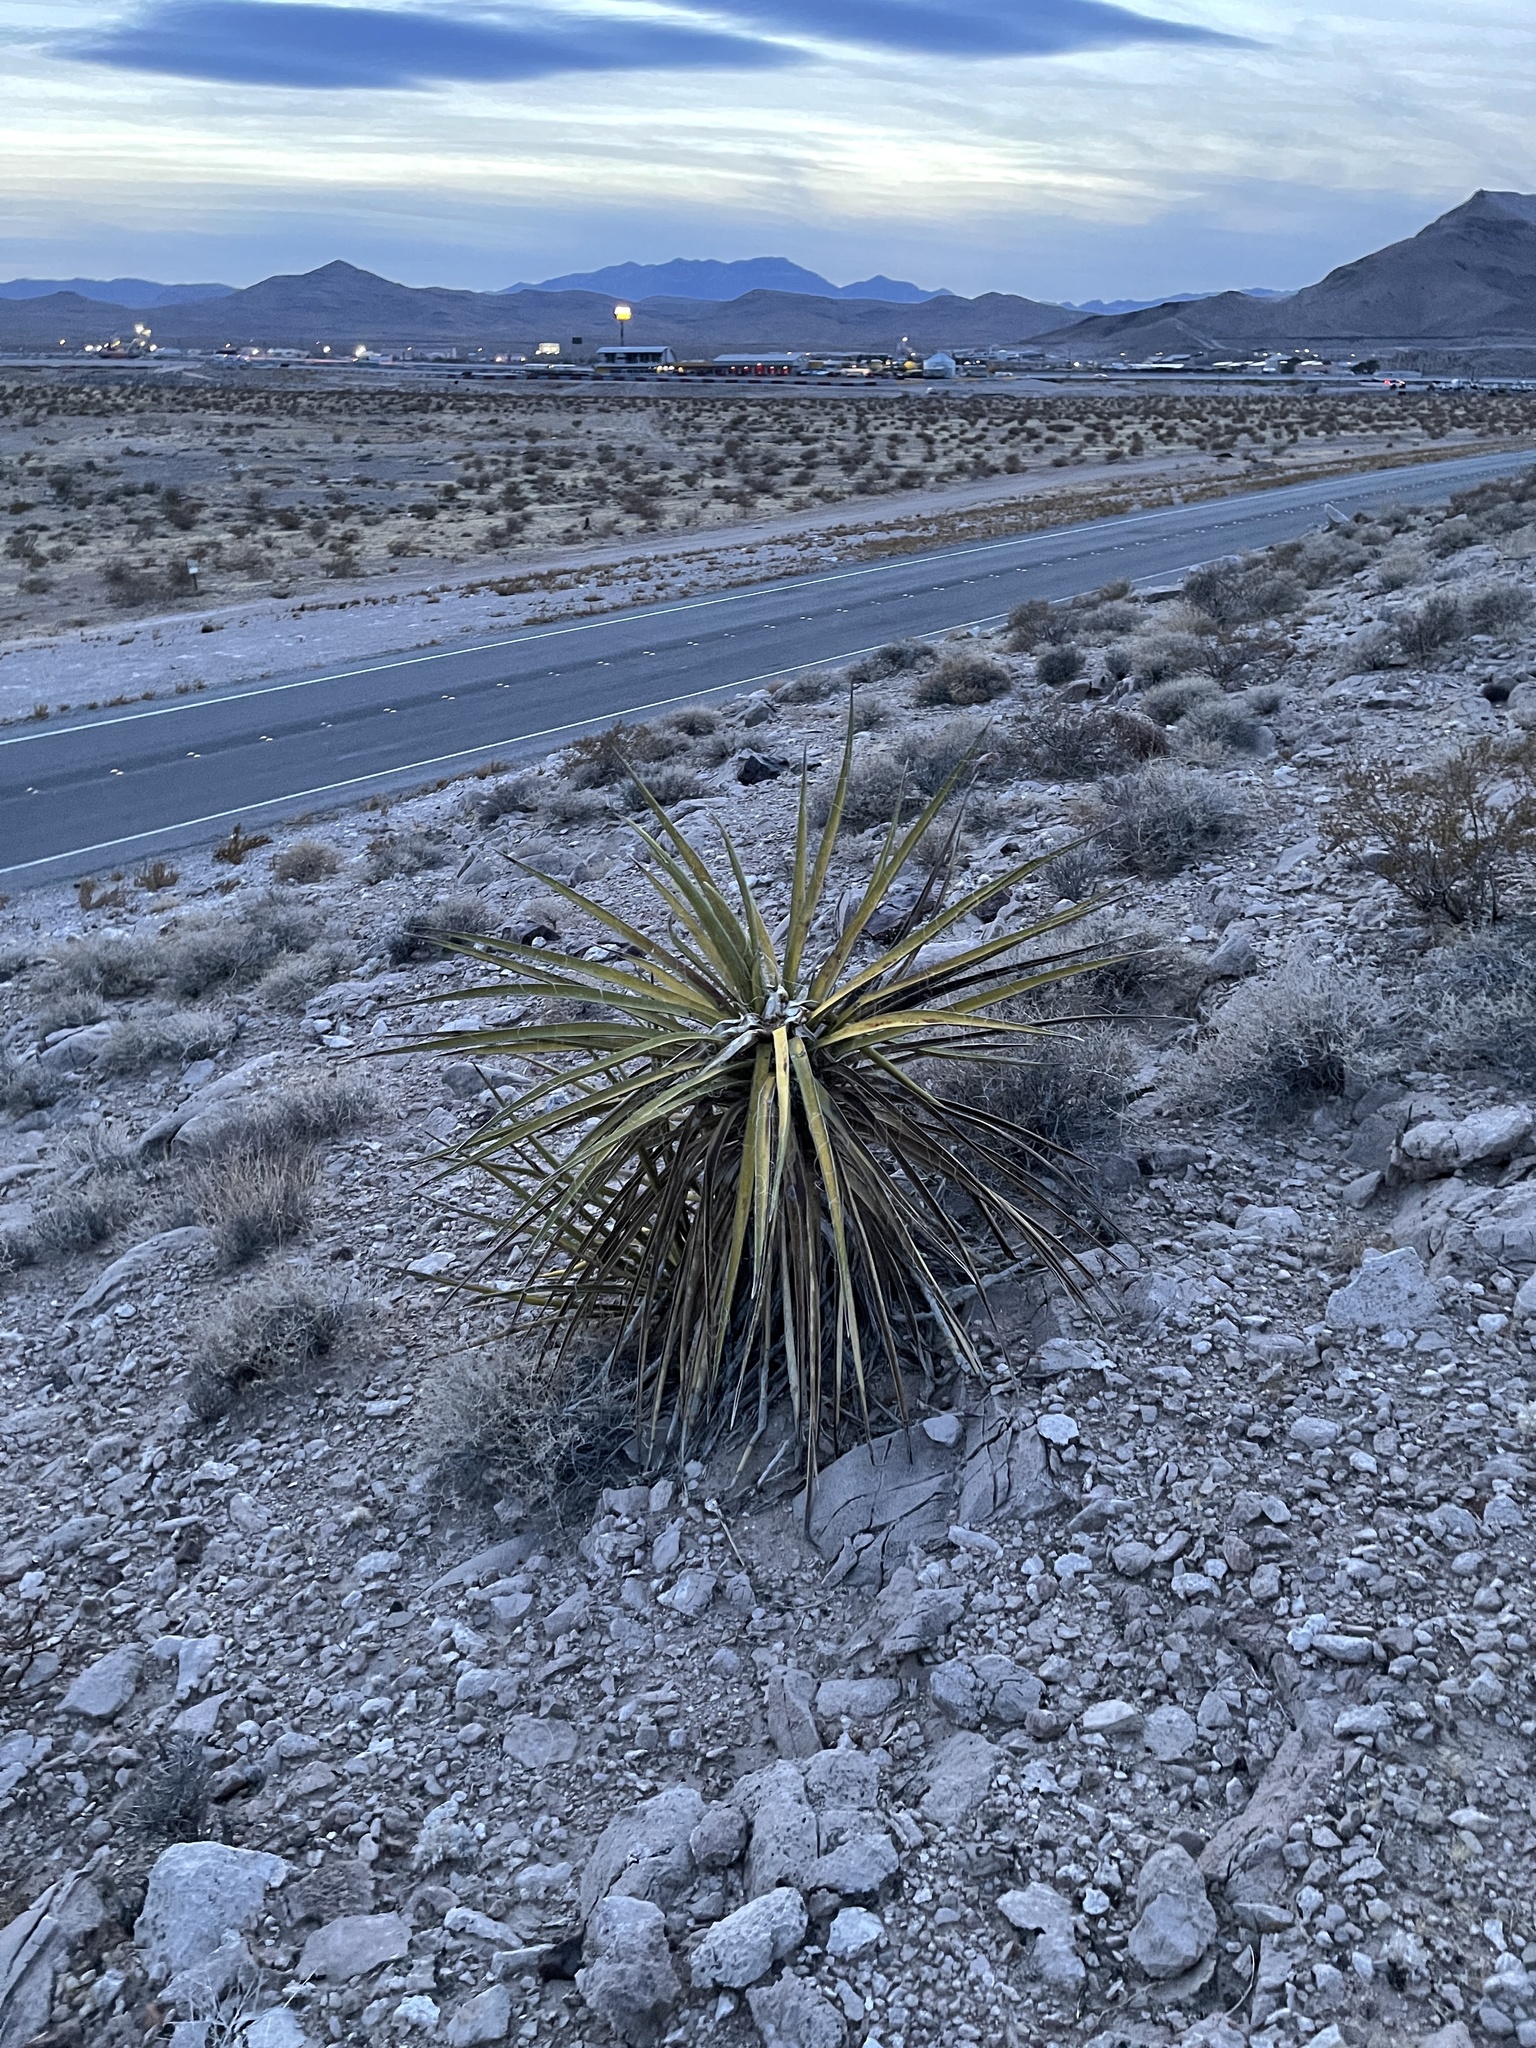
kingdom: Plantae
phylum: Tracheophyta
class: Liliopsida
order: Asparagales
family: Asparagaceae
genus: Yucca
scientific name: Yucca schidigera
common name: Mojave yucca
